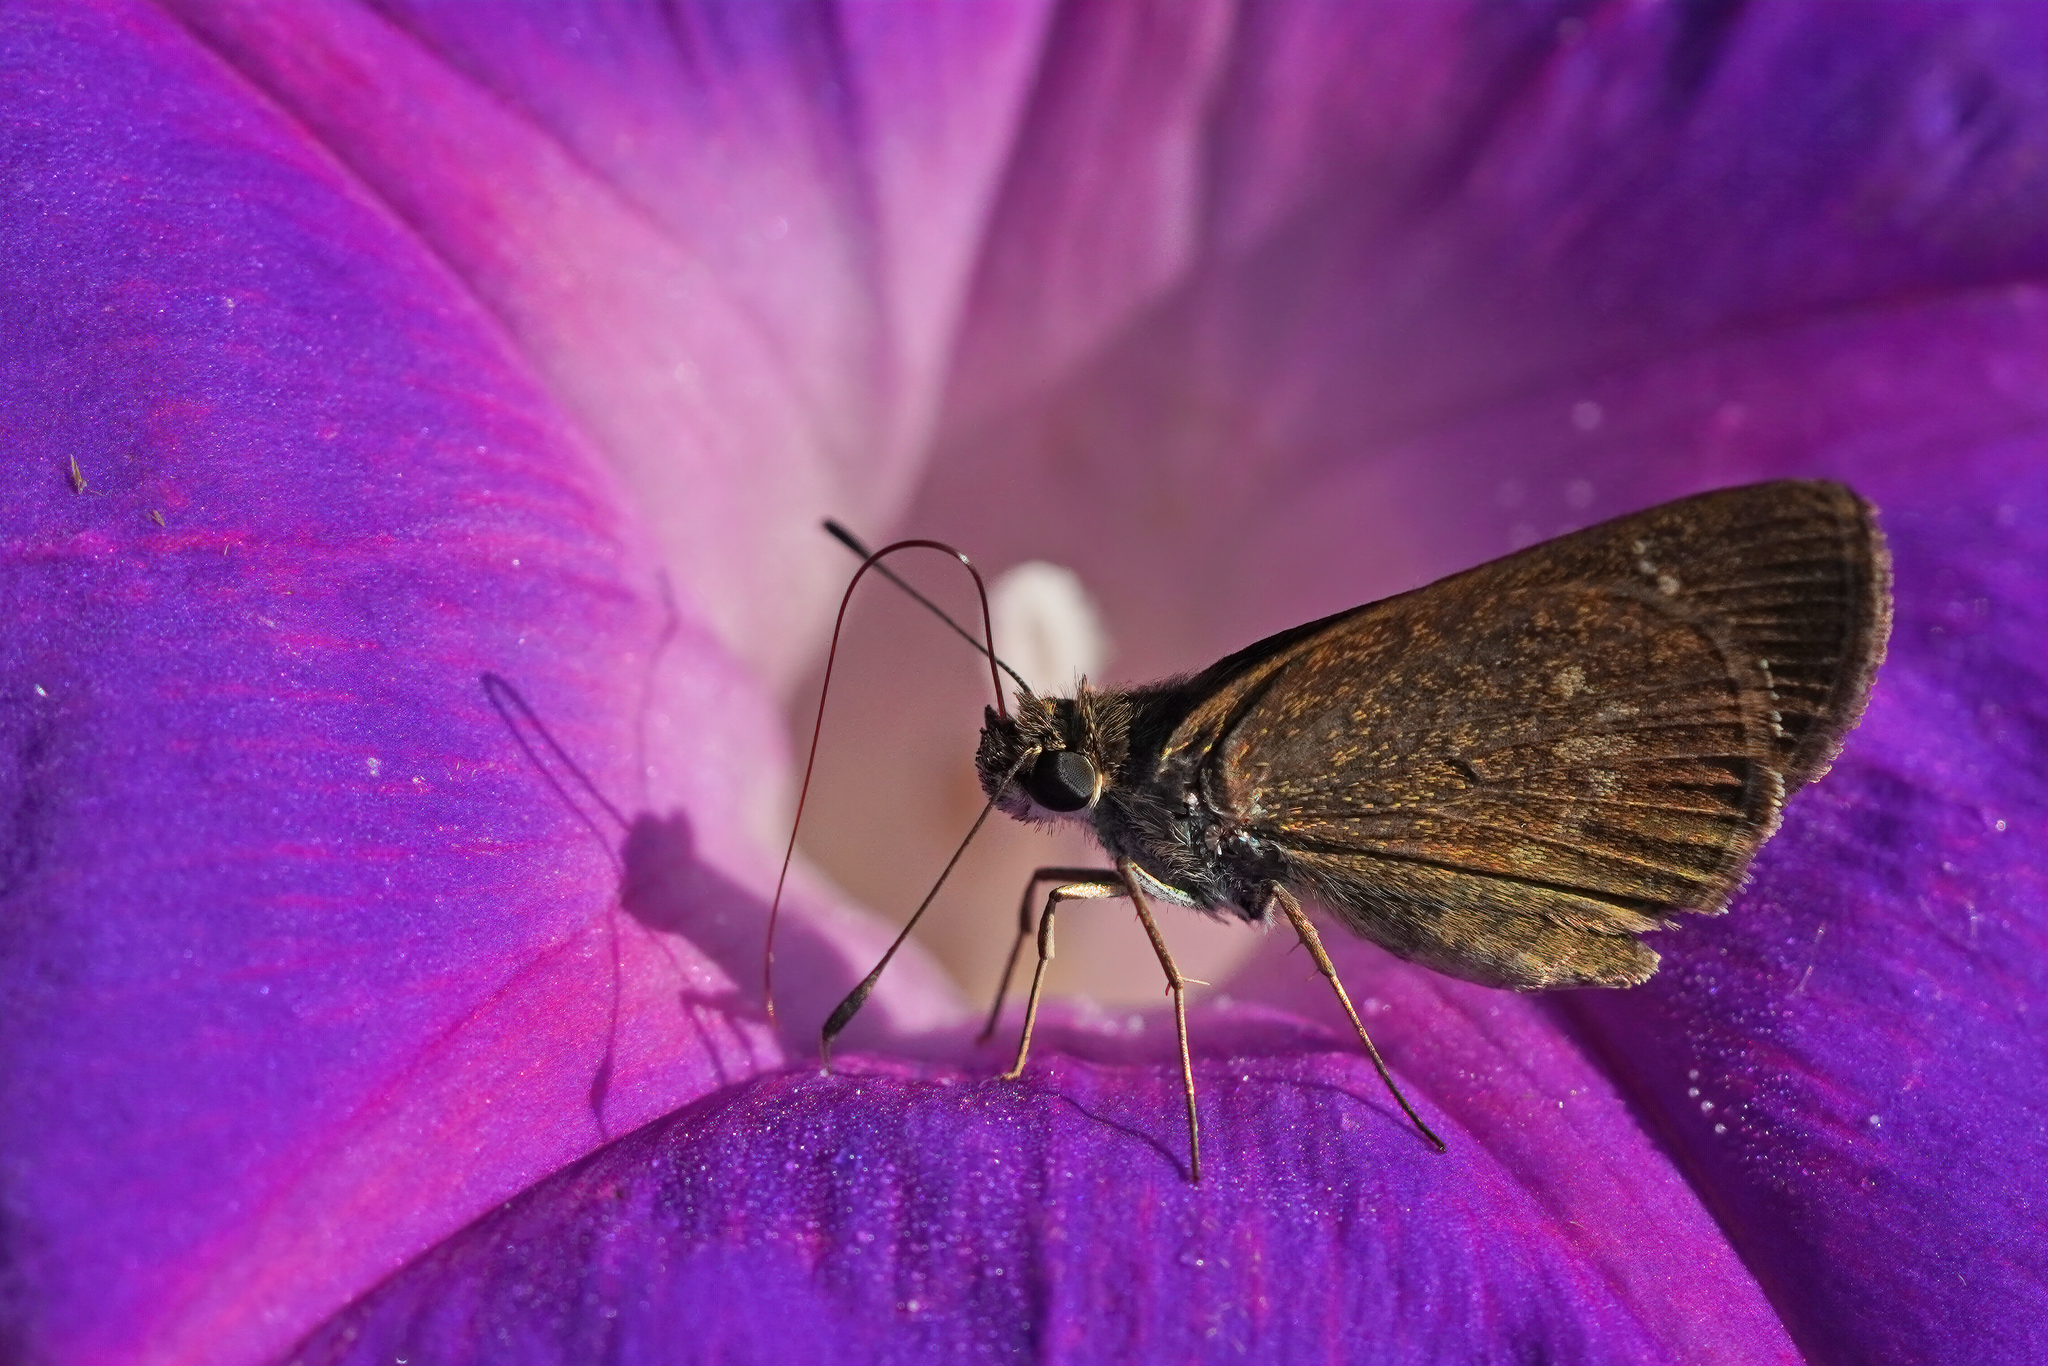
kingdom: Animalia
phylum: Arthropoda
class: Insecta
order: Lepidoptera
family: Hesperiidae
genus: Cymaenes
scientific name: Cymaenes tripunctus
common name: Dingy dotted skipper
